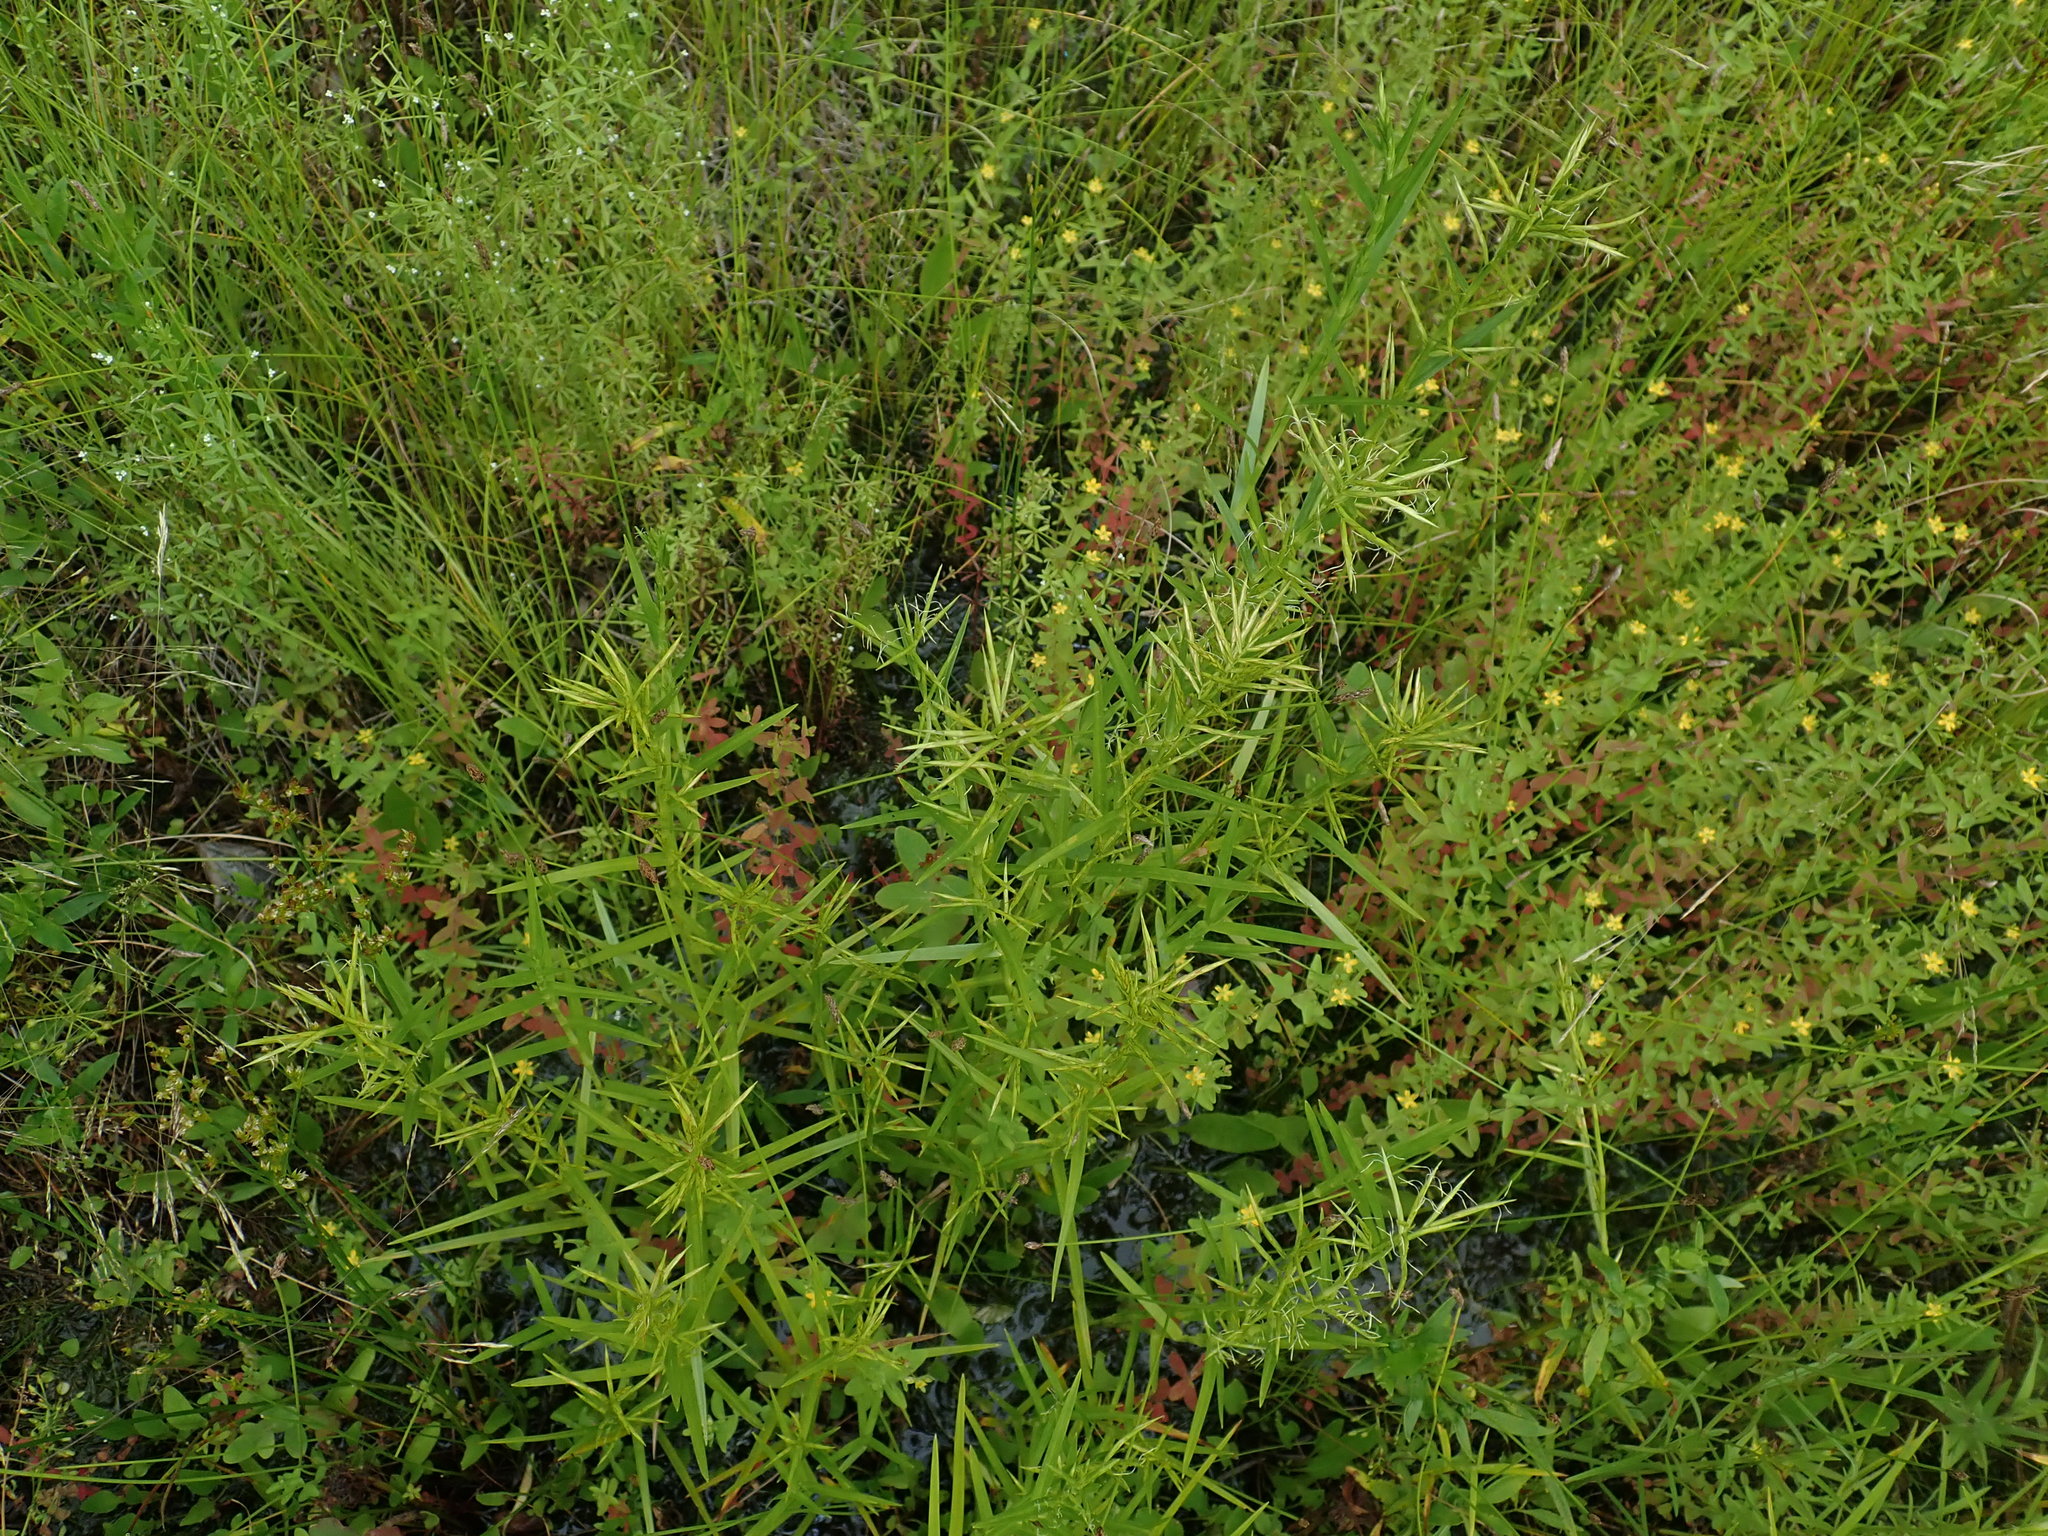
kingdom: Plantae
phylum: Tracheophyta
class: Liliopsida
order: Poales
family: Cyperaceae
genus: Dulichium
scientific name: Dulichium arundinaceum
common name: Three-way sedge
